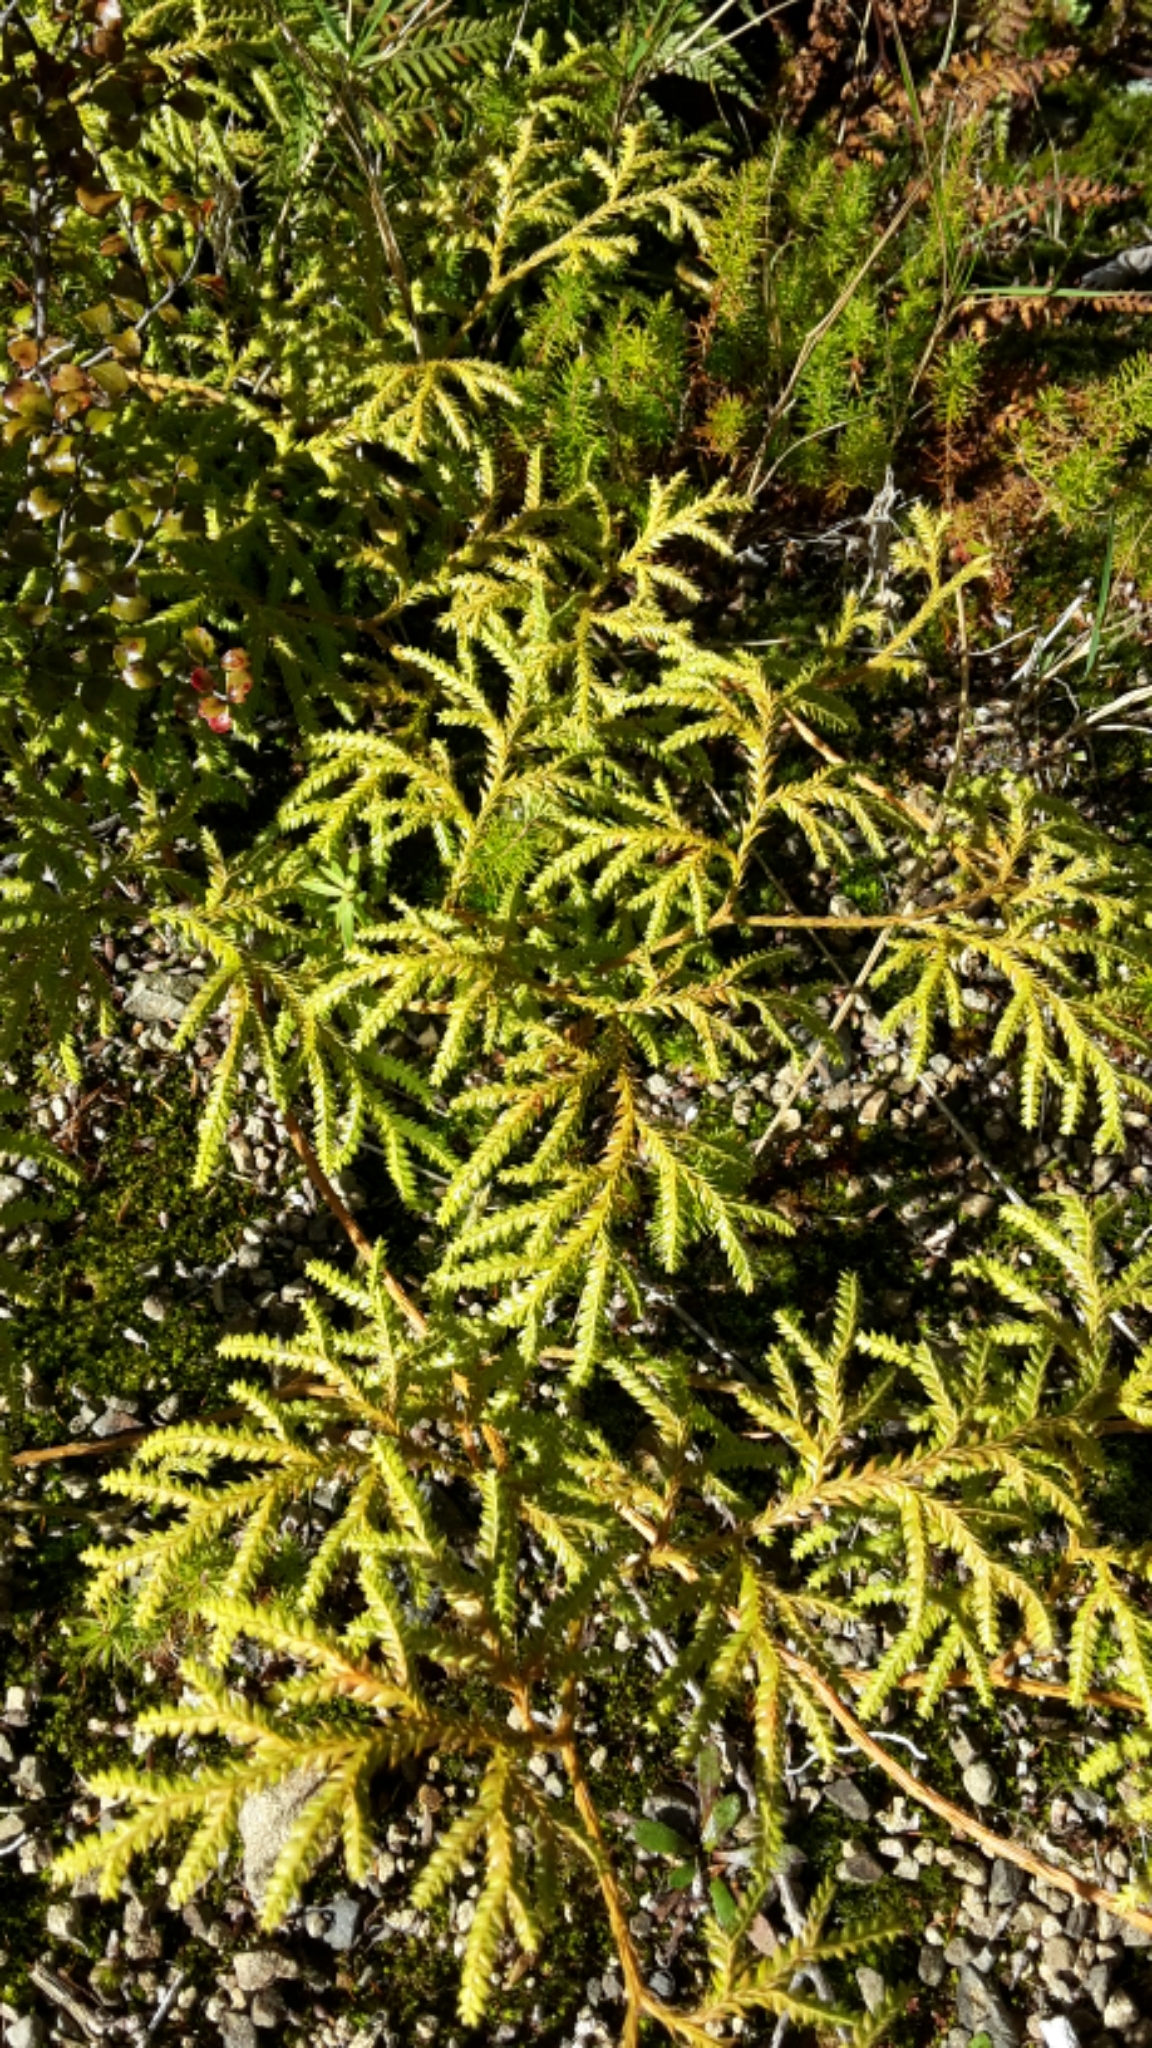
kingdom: Plantae
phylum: Tracheophyta
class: Lycopodiopsida
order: Lycopodiales
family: Lycopodiaceae
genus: Lycopodium
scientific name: Lycopodium volubile
